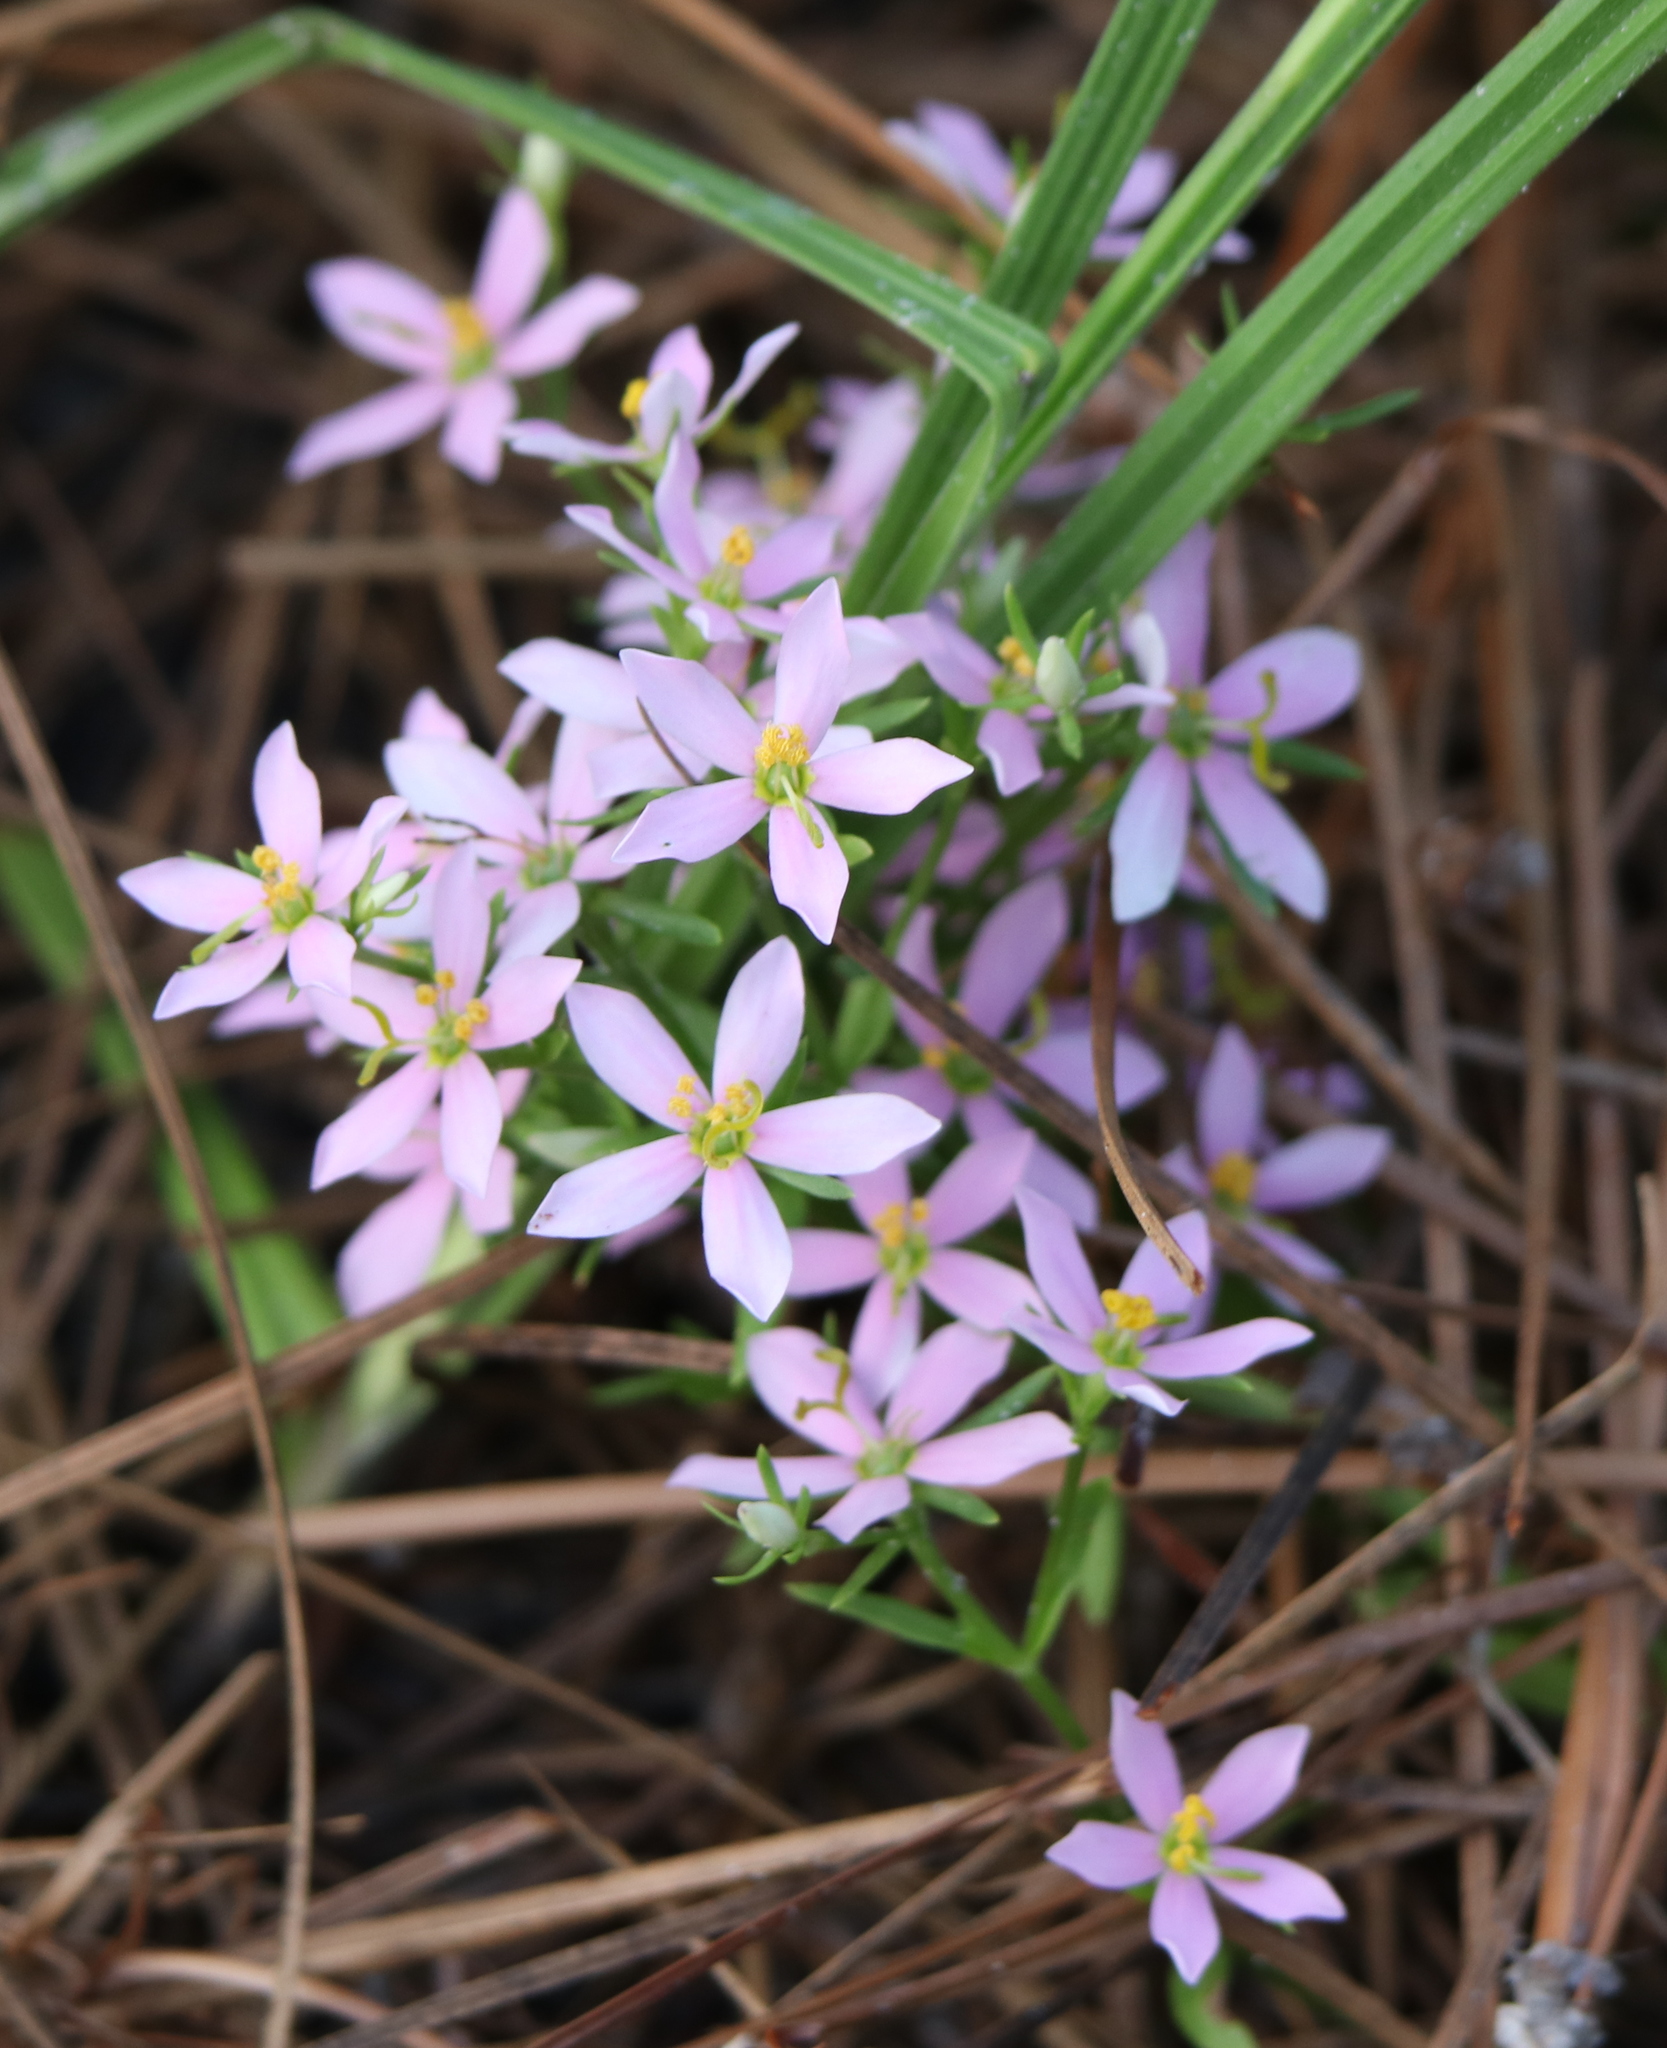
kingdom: Plantae
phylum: Tracheophyta
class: Magnoliopsida
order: Gentianales
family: Gentianaceae
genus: Sabatia
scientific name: Sabatia brachiata
